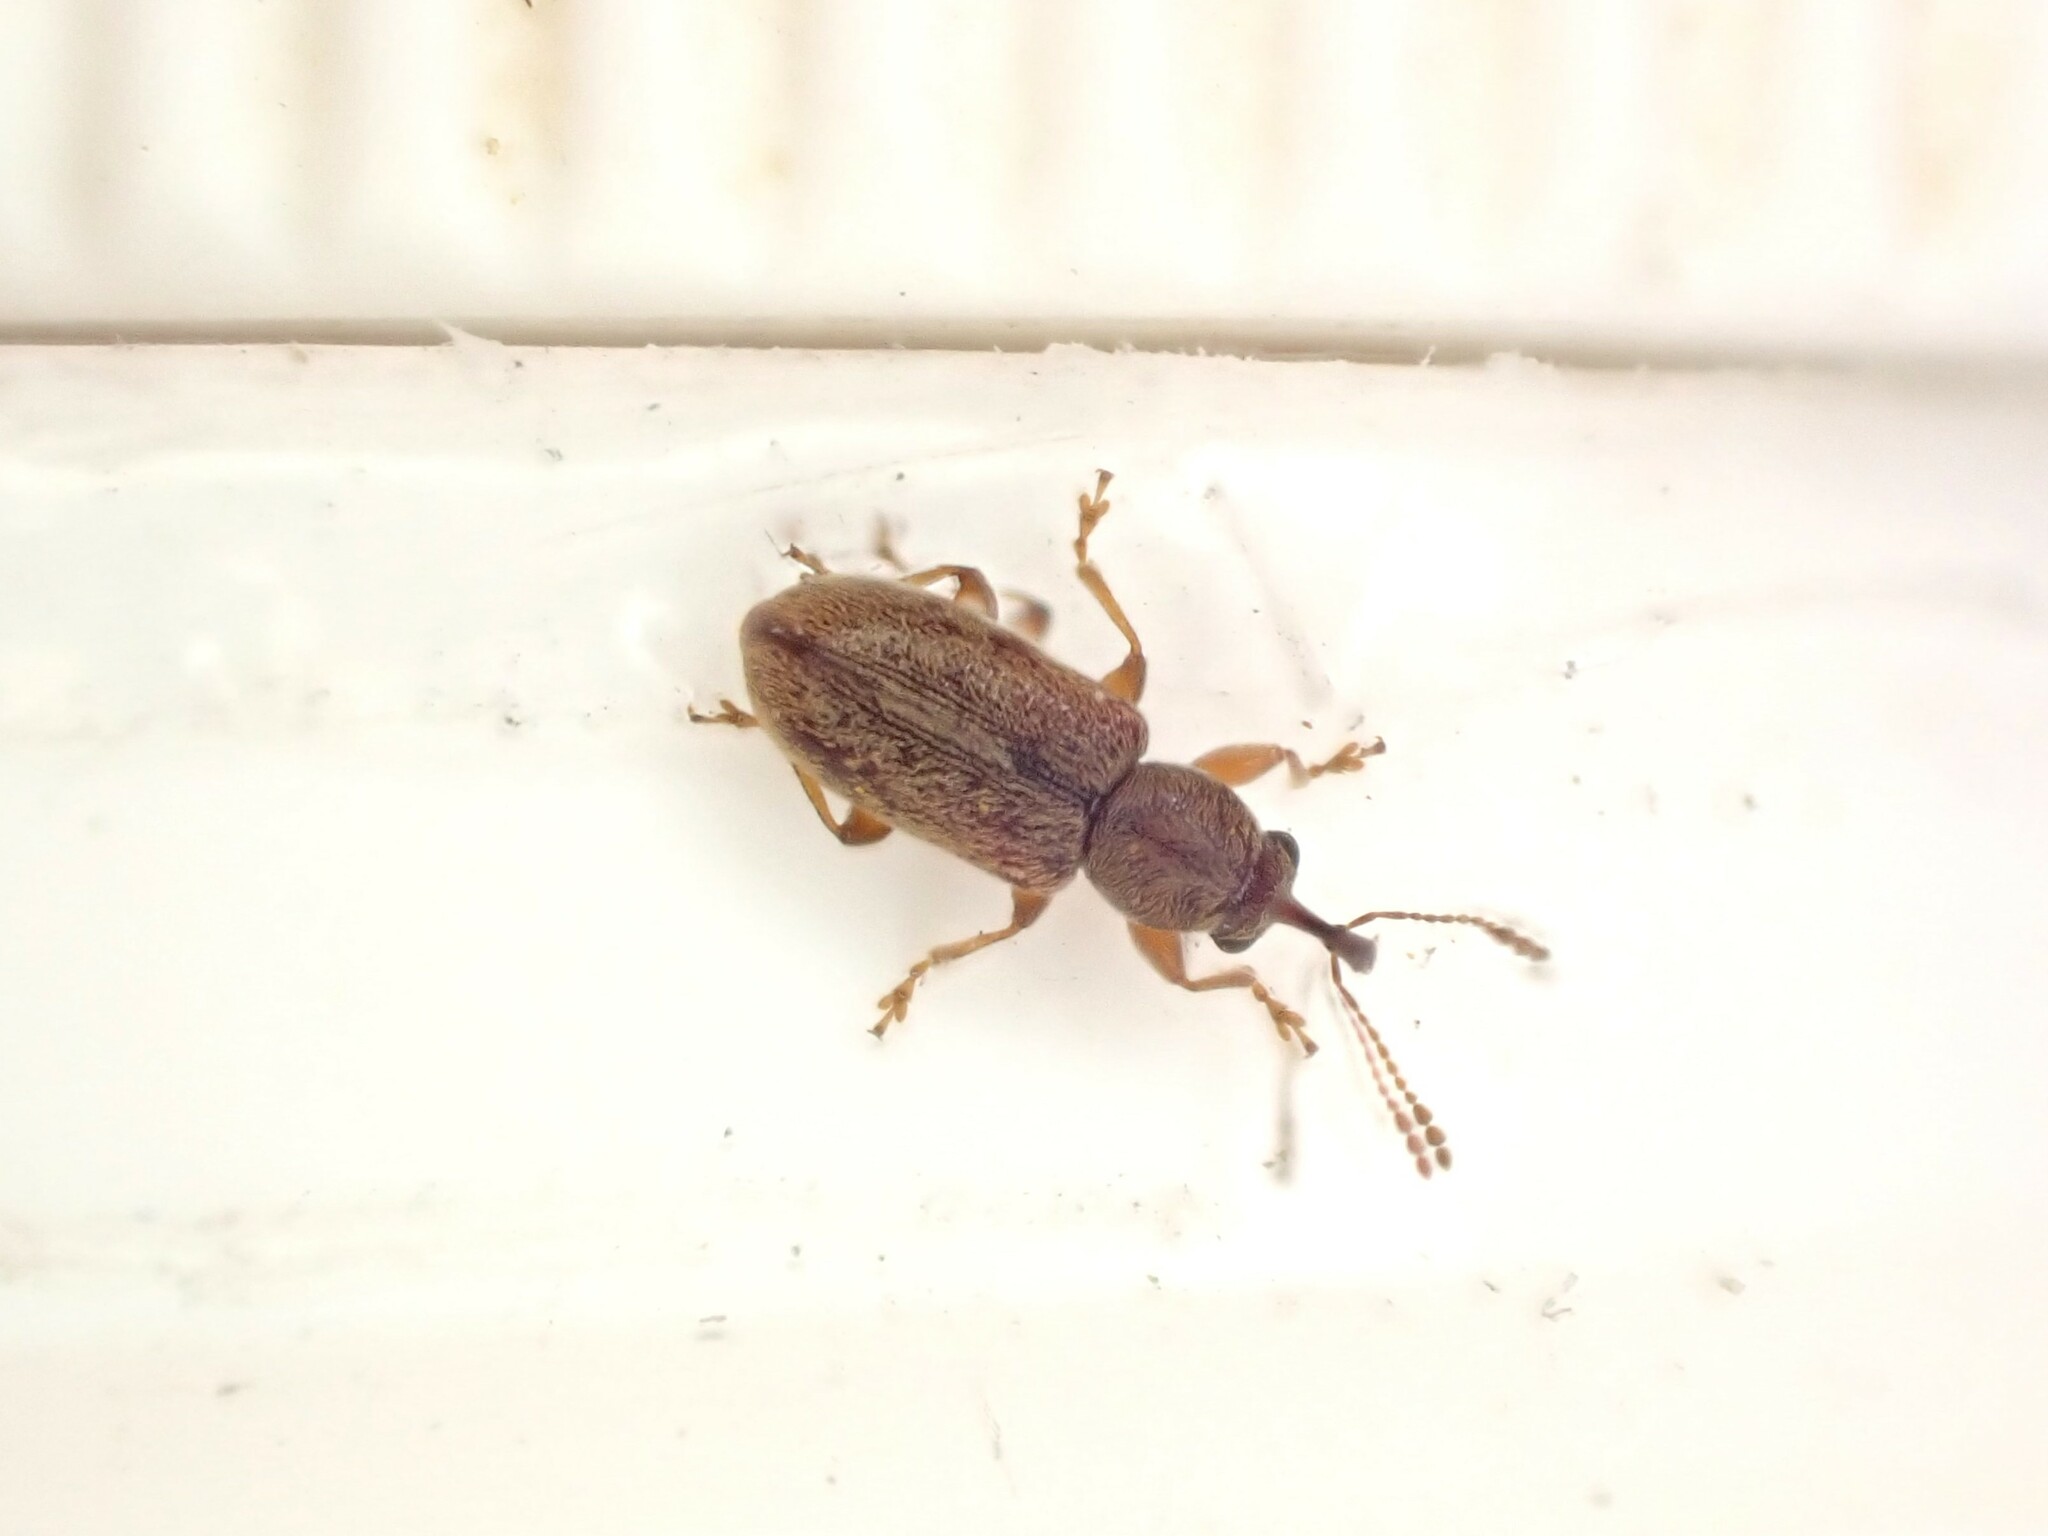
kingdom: Animalia
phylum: Arthropoda
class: Insecta
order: Coleoptera
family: Nemonychidae
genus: Rhinorhynchus
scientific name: Rhinorhynchus rufulus
